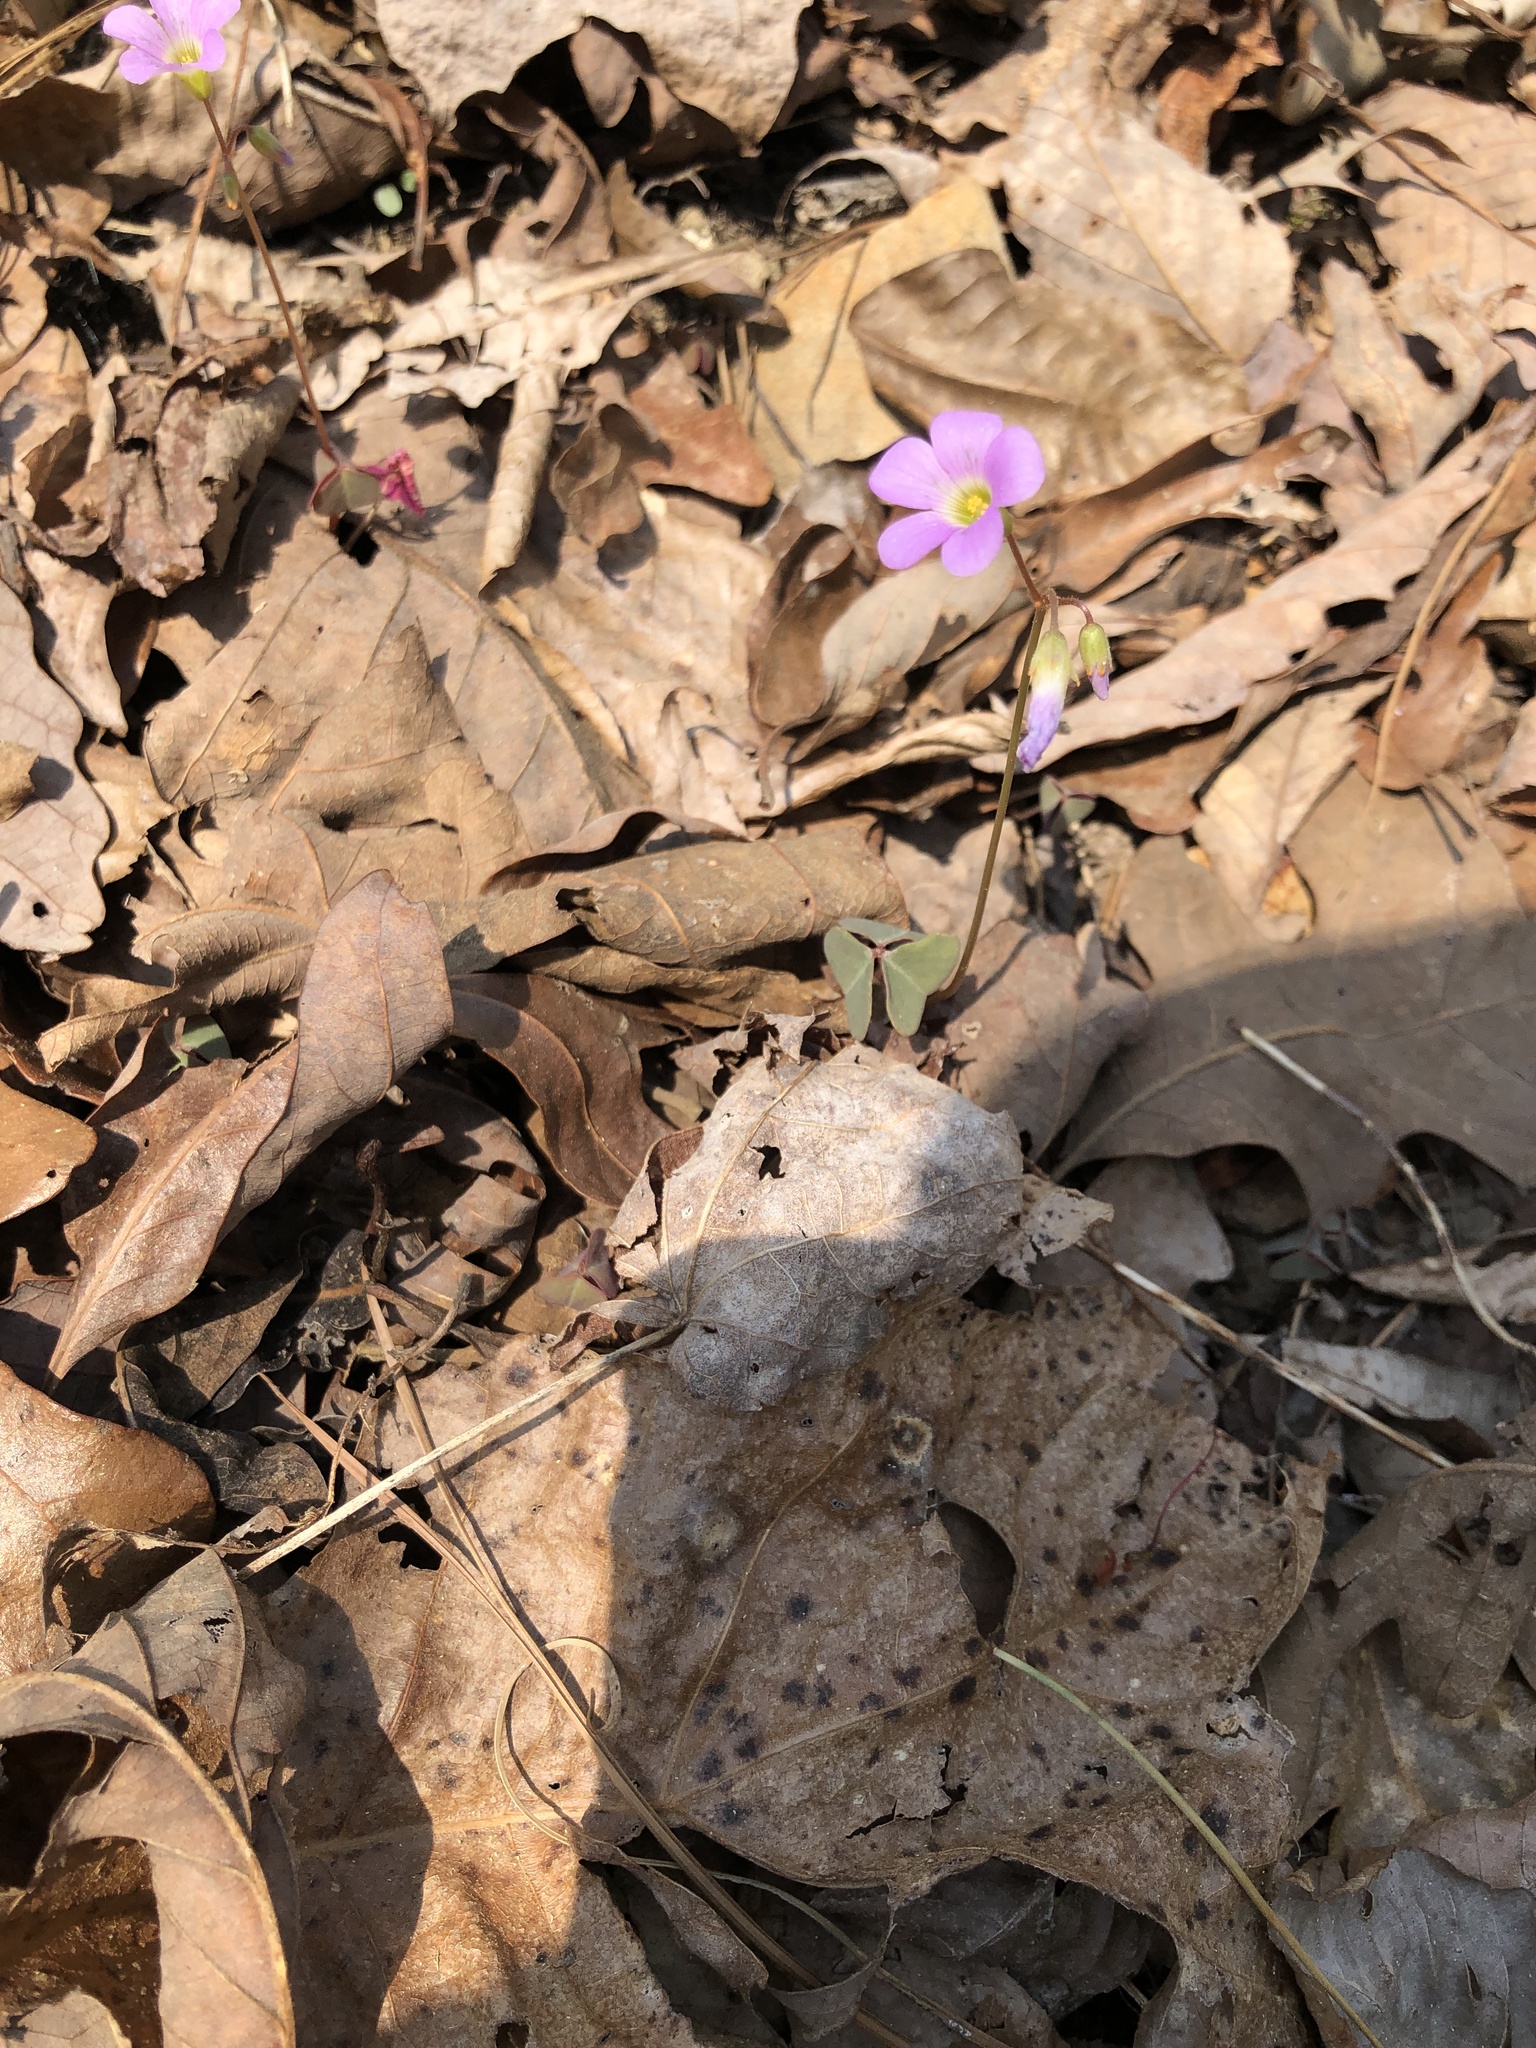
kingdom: Plantae
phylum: Tracheophyta
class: Magnoliopsida
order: Oxalidales
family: Oxalidaceae
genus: Oxalis
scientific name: Oxalis violacea
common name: Violet wood-sorrel
